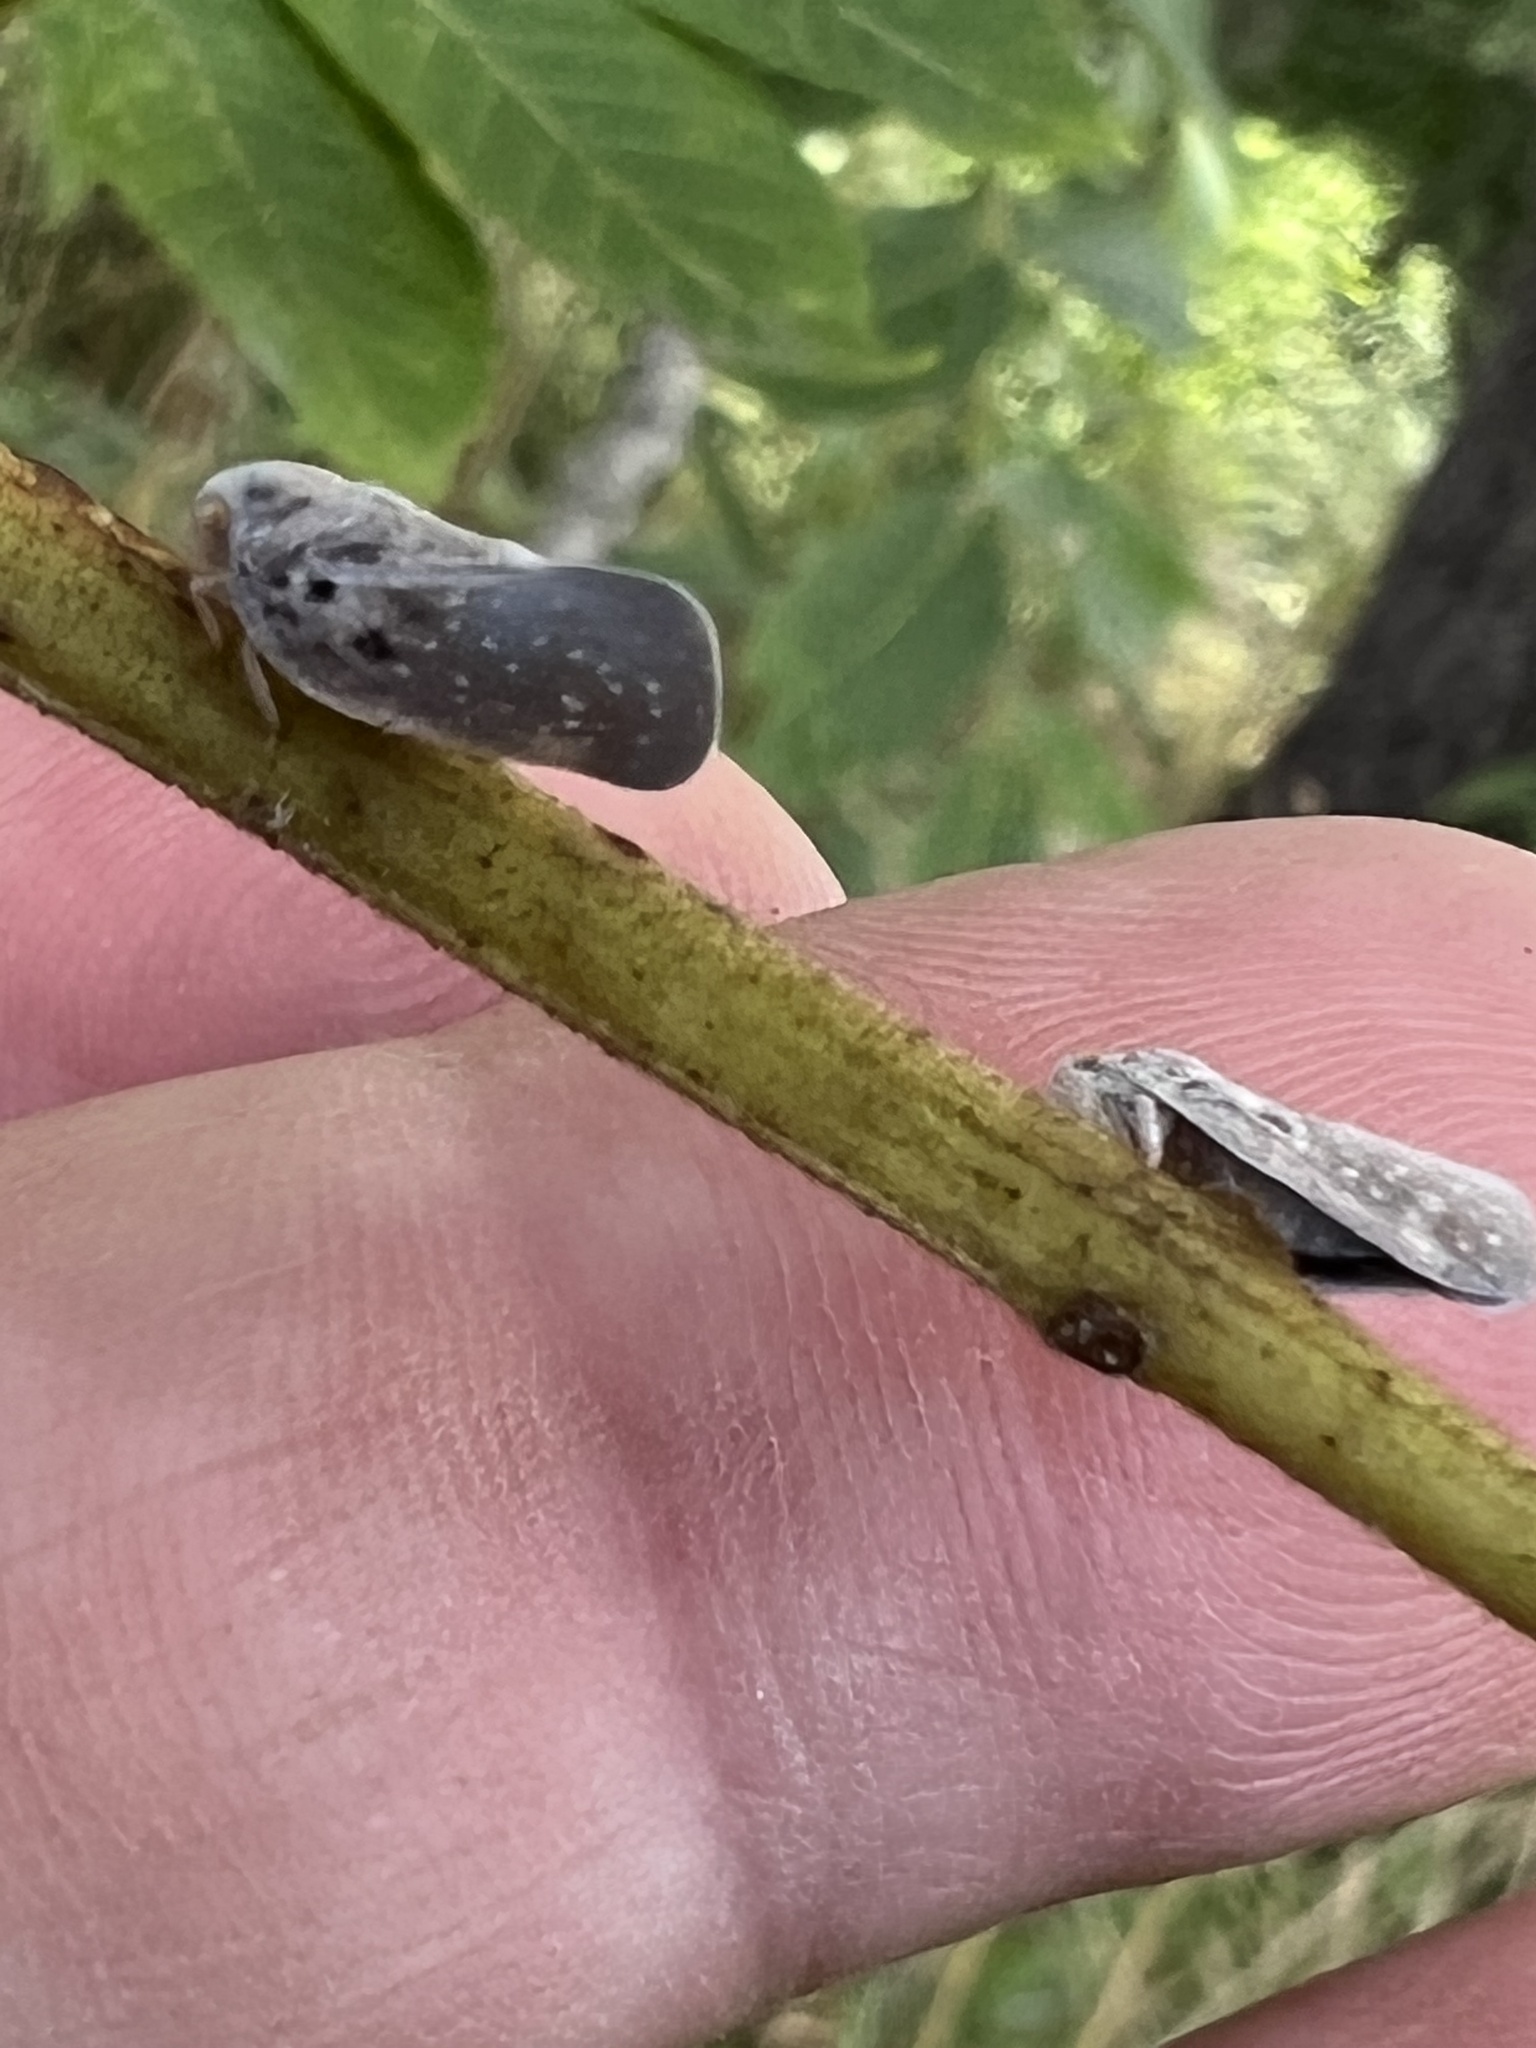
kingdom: Animalia
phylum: Arthropoda
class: Insecta
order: Hemiptera
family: Flatidae
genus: Metcalfa
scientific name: Metcalfa pruinosa
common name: Citrus flatid planthopper
